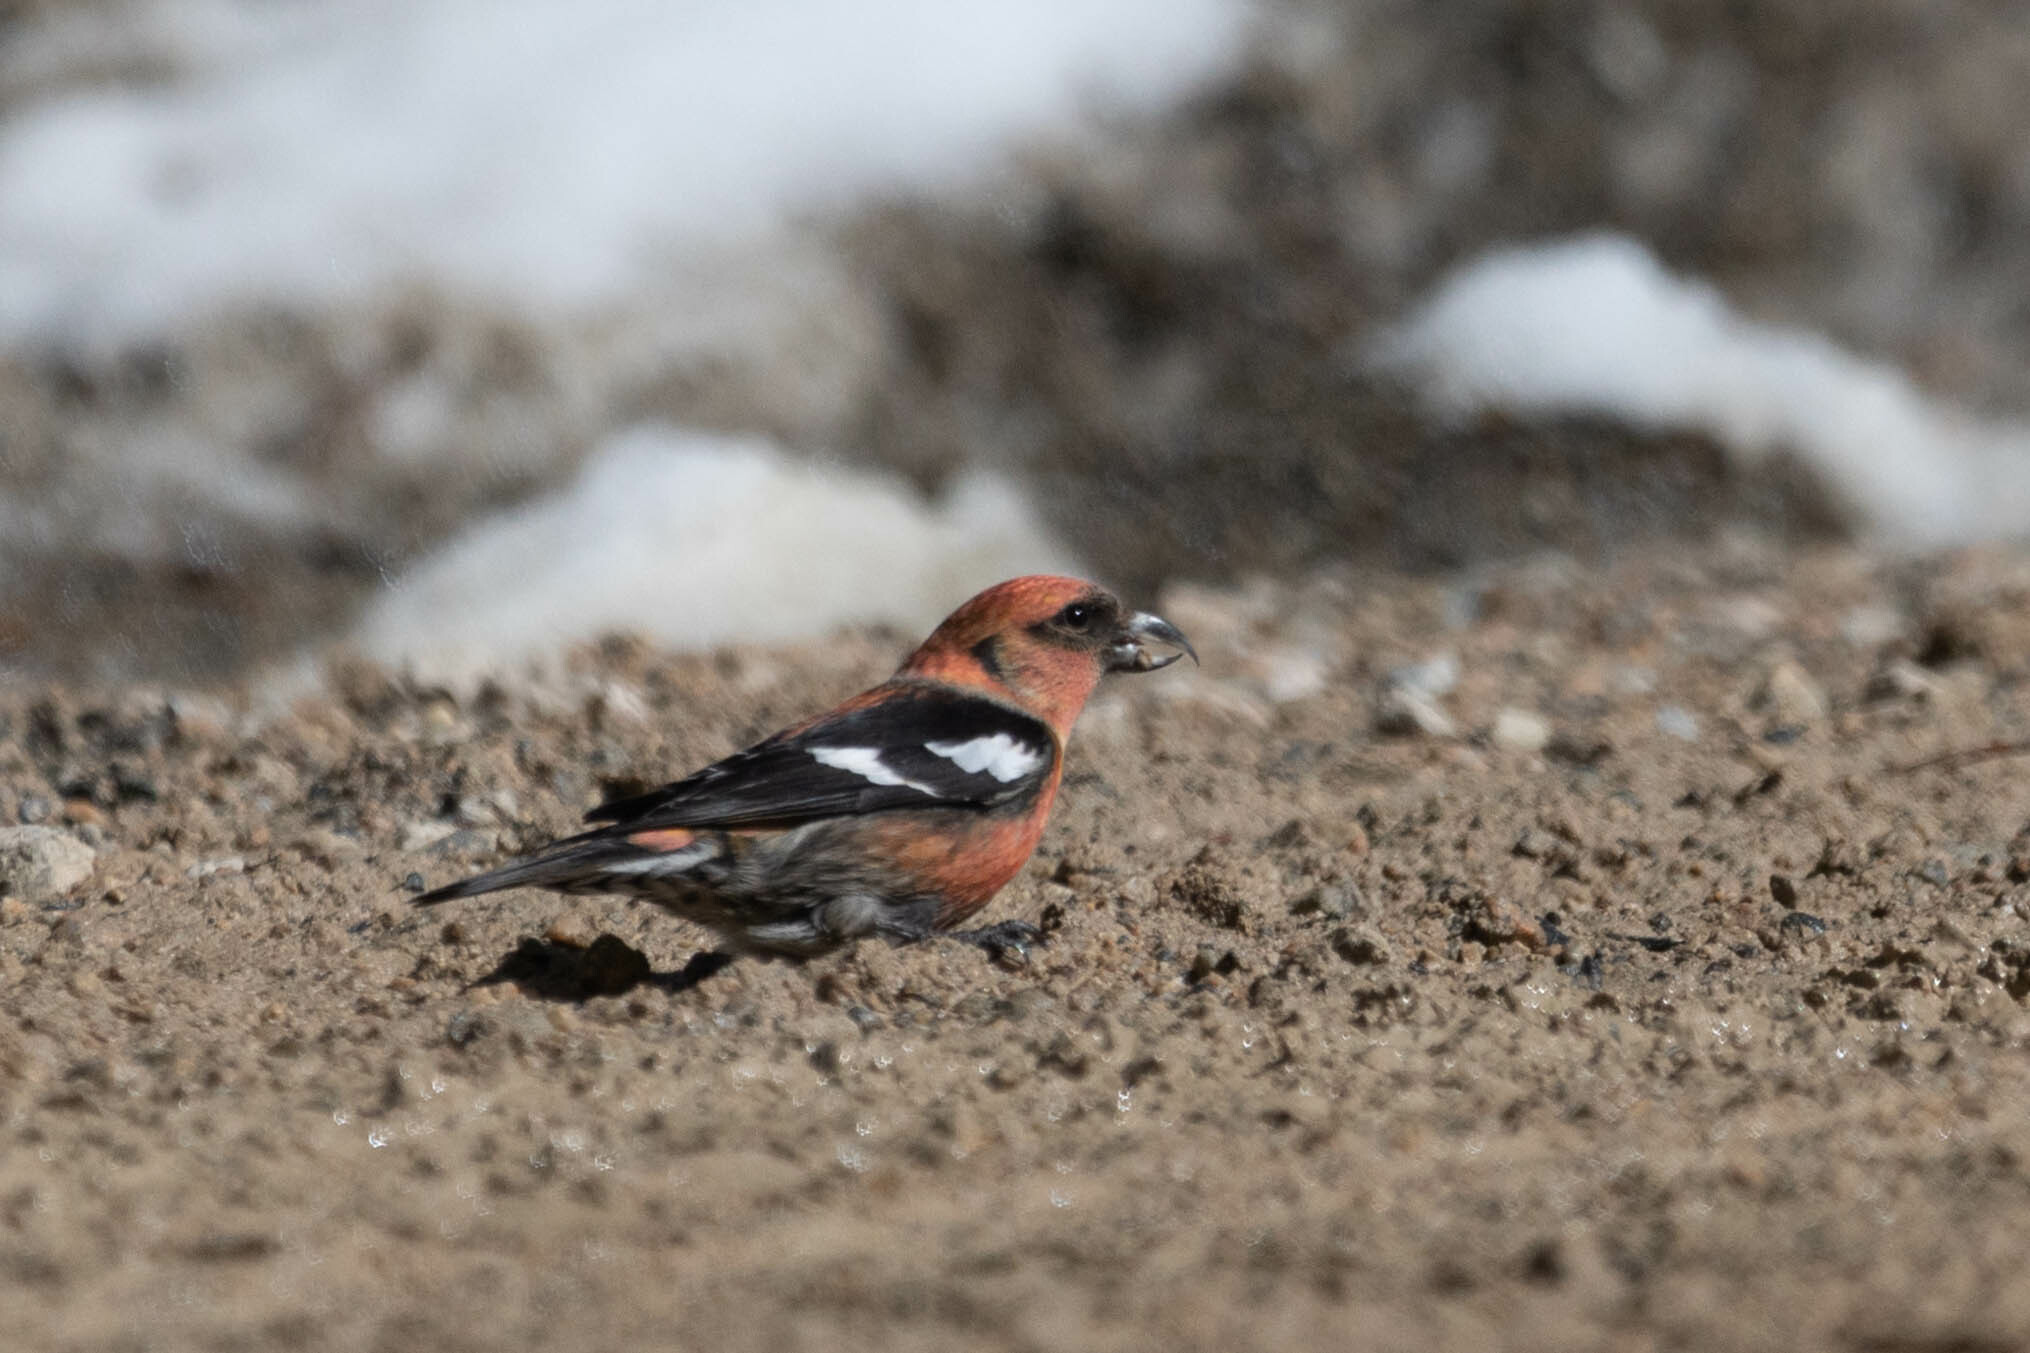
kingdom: Animalia
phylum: Chordata
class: Aves
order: Passeriformes
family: Fringillidae
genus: Loxia
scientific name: Loxia leucoptera
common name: Two-barred crossbill
